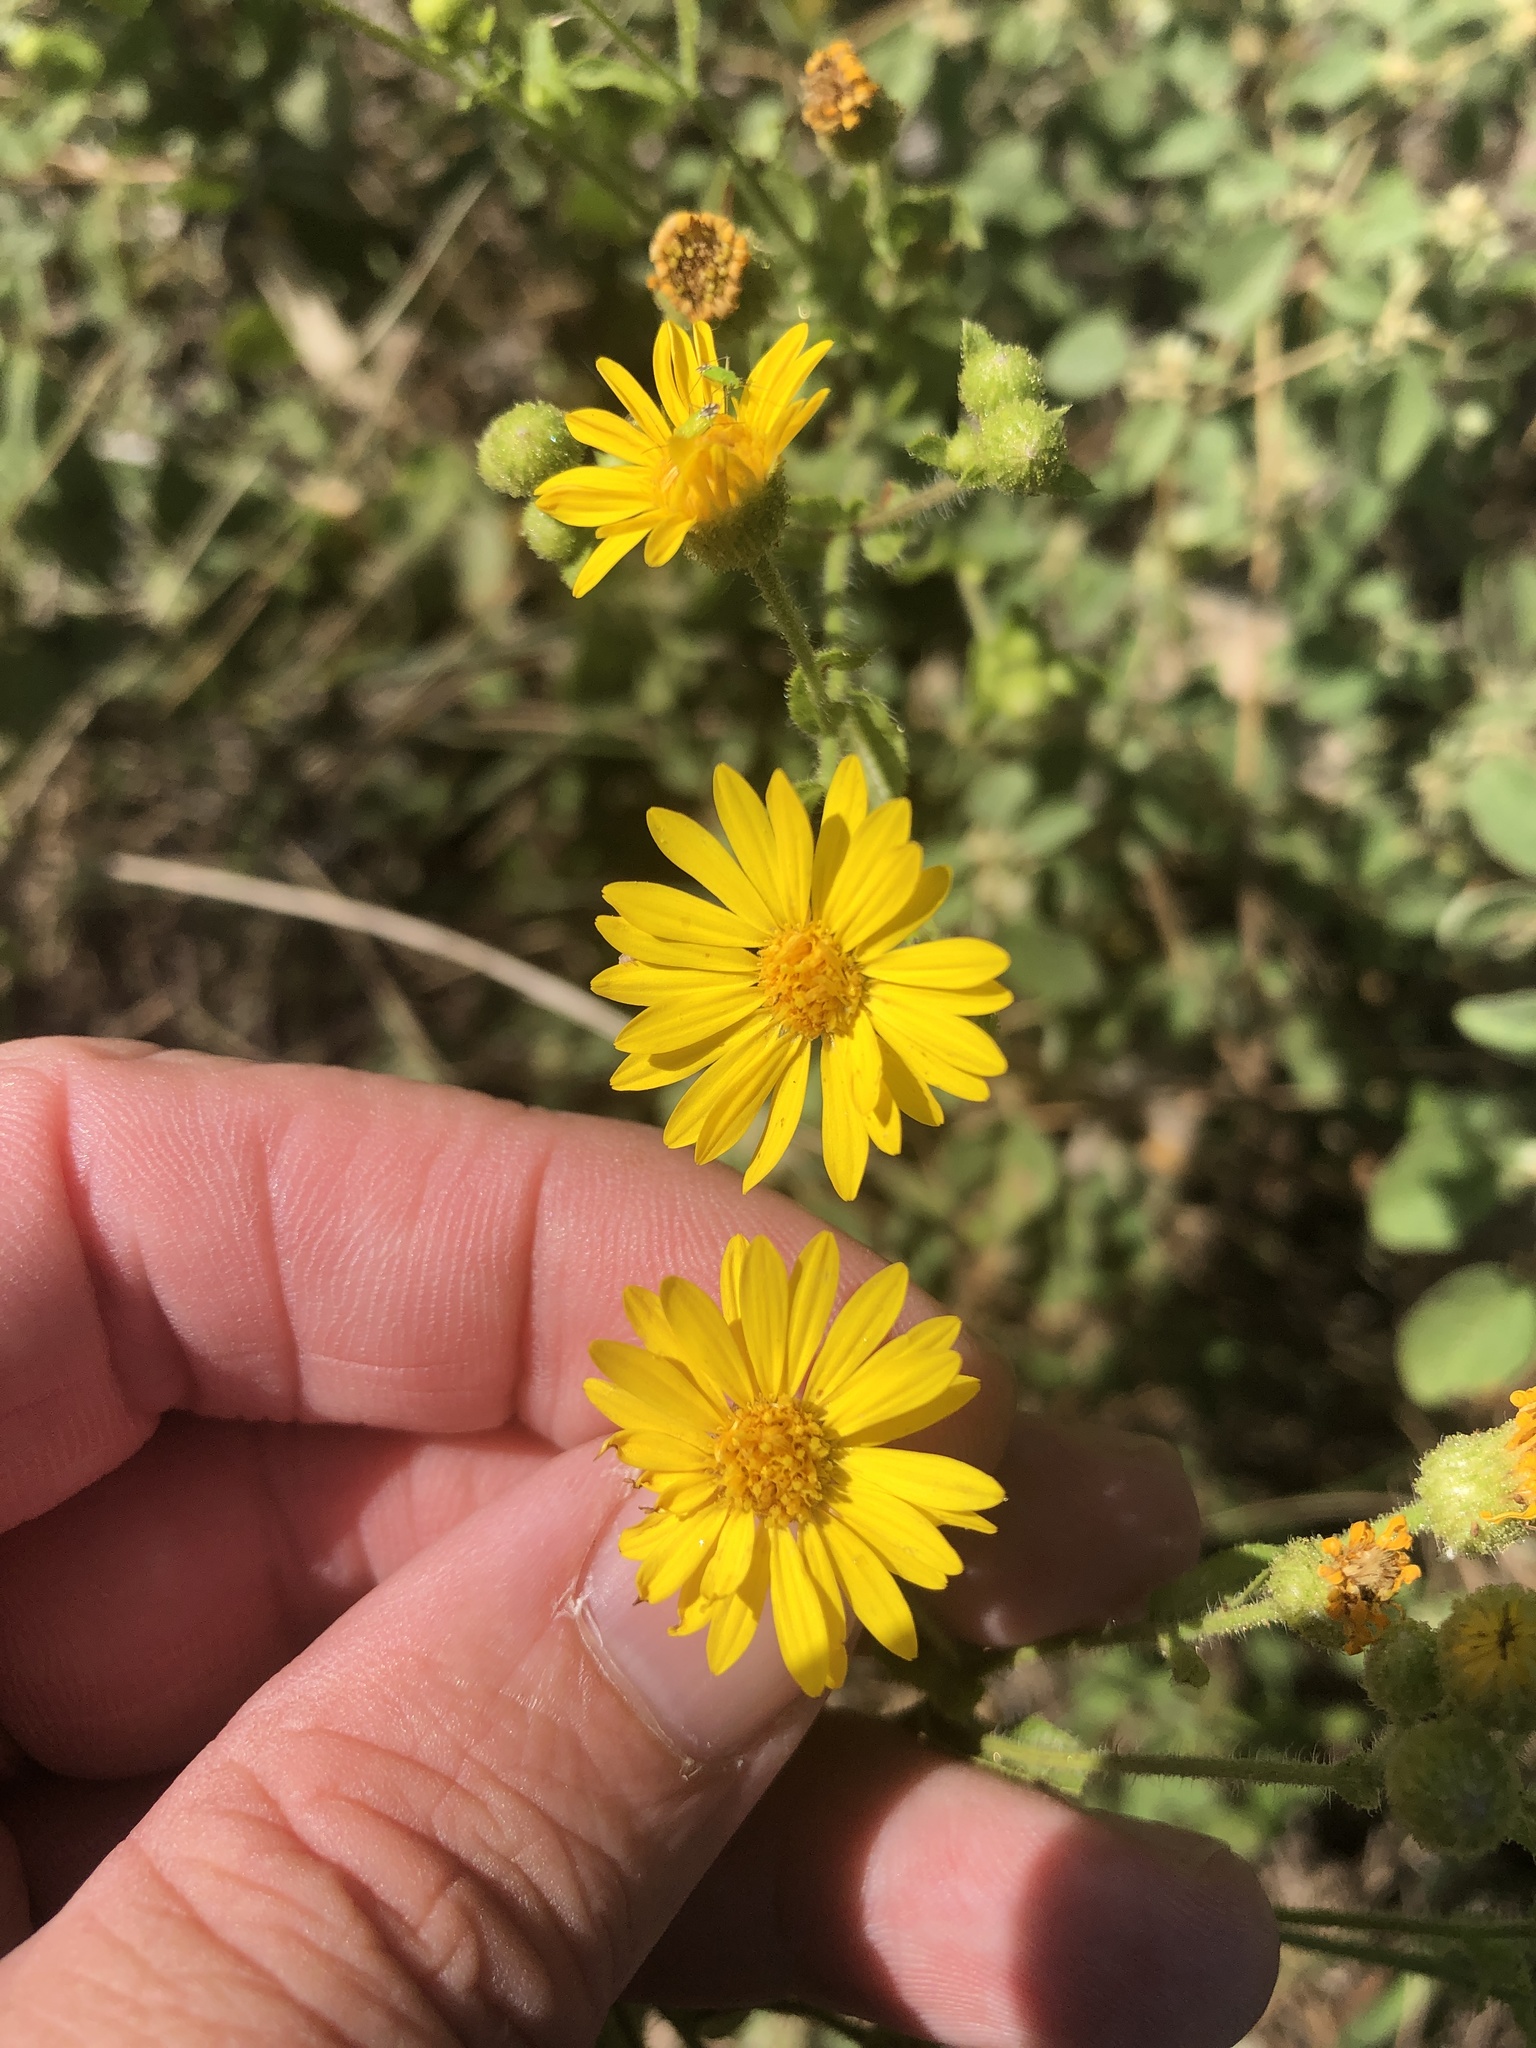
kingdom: Plantae
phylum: Tracheophyta
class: Magnoliopsida
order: Asterales
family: Asteraceae
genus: Heterotheca
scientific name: Heterotheca subaxillaris
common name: Camphorweed
